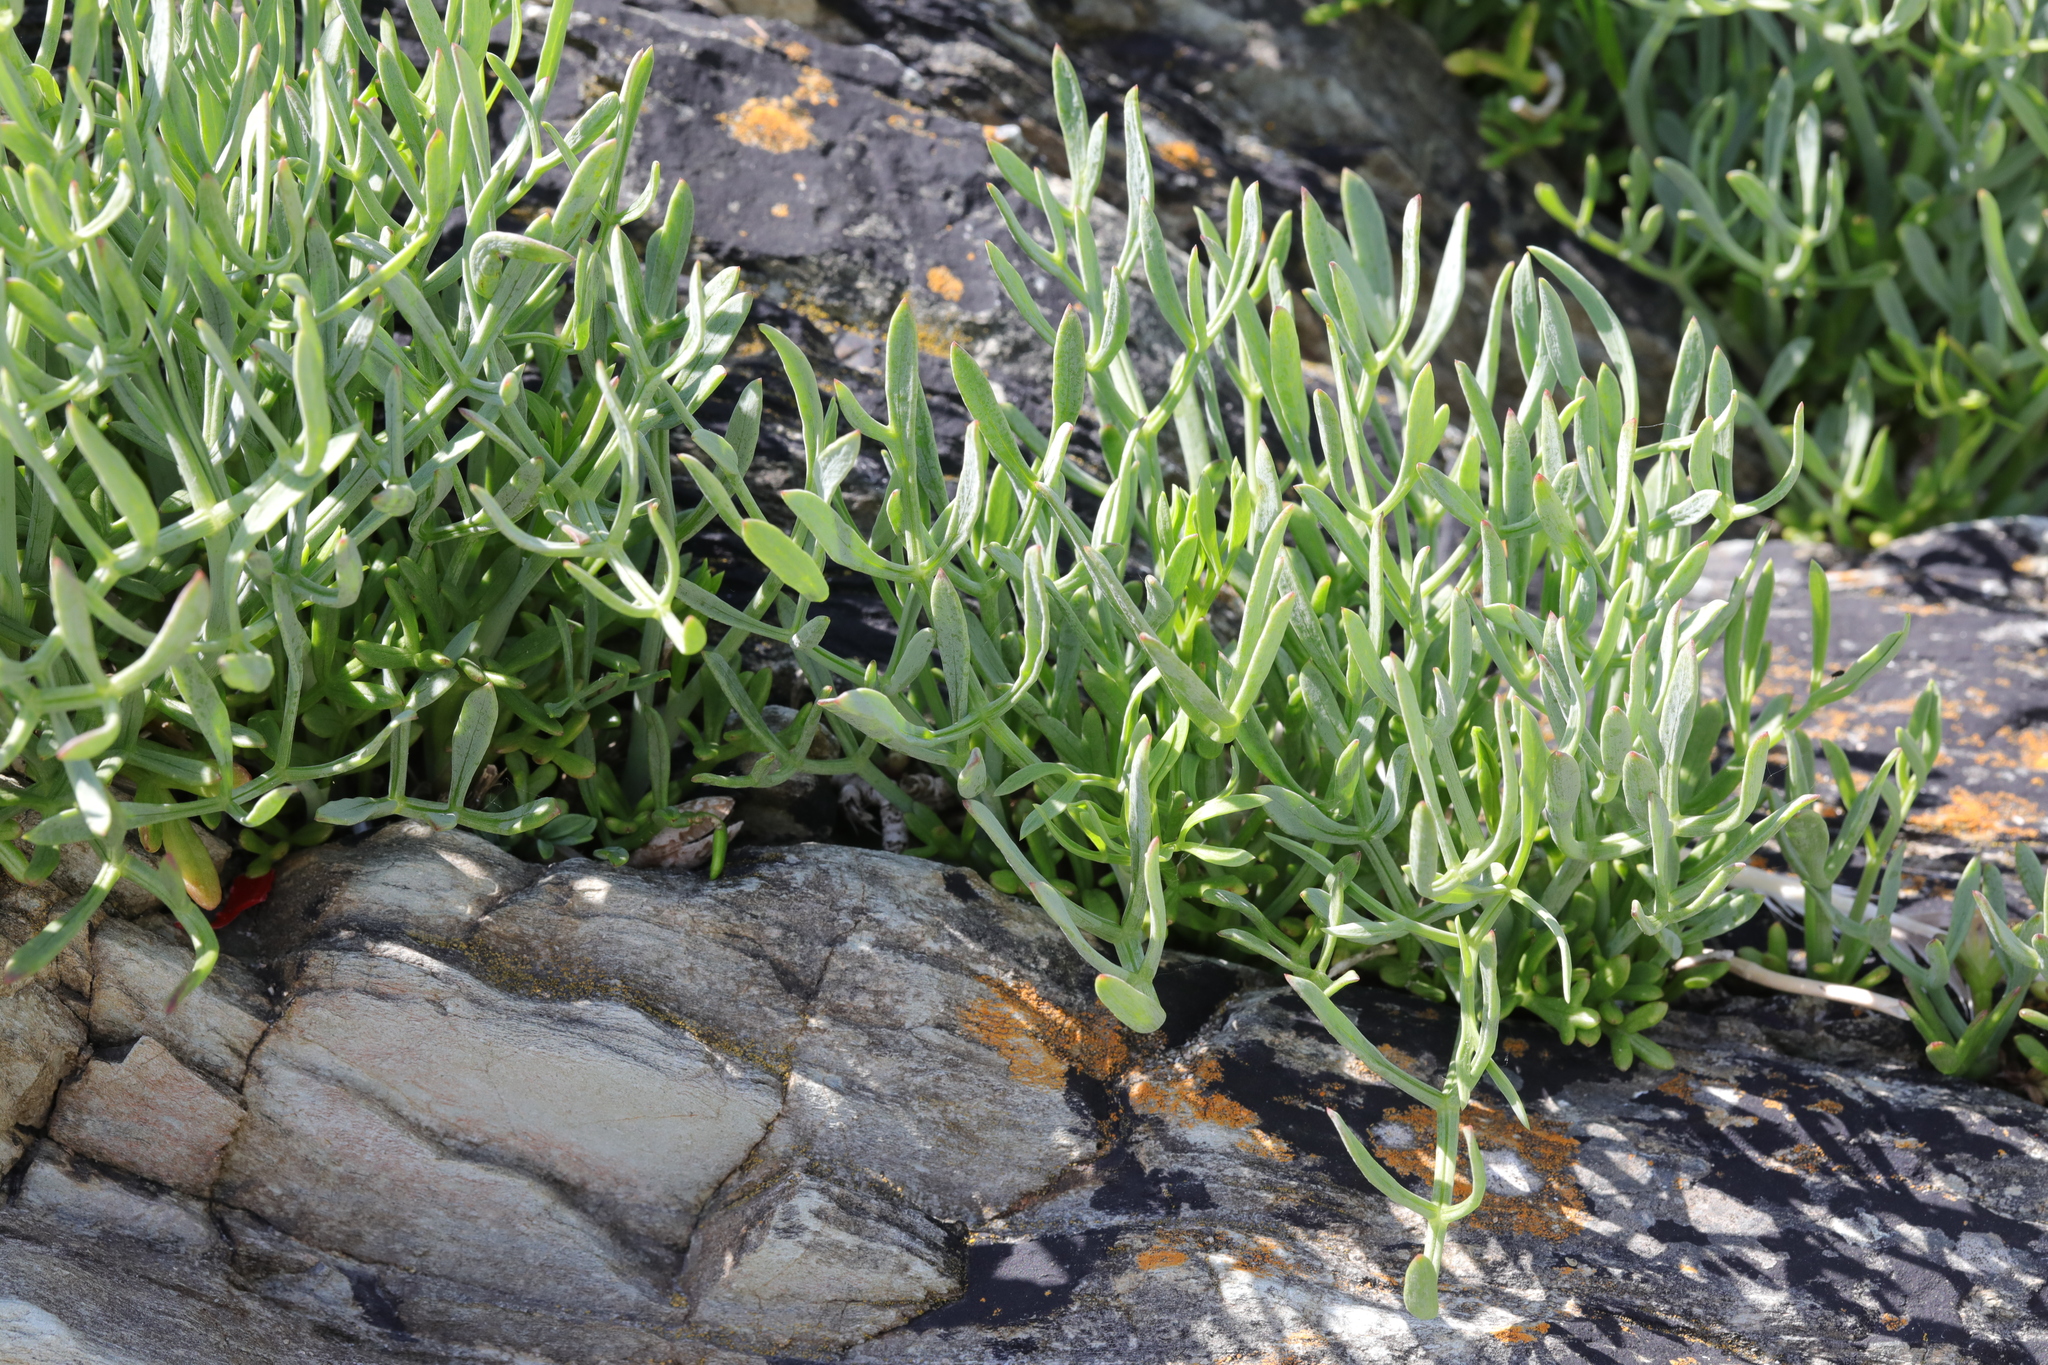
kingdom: Plantae
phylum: Tracheophyta
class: Magnoliopsida
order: Apiales
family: Apiaceae
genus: Crithmum
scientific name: Crithmum maritimum
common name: Rock samphire
